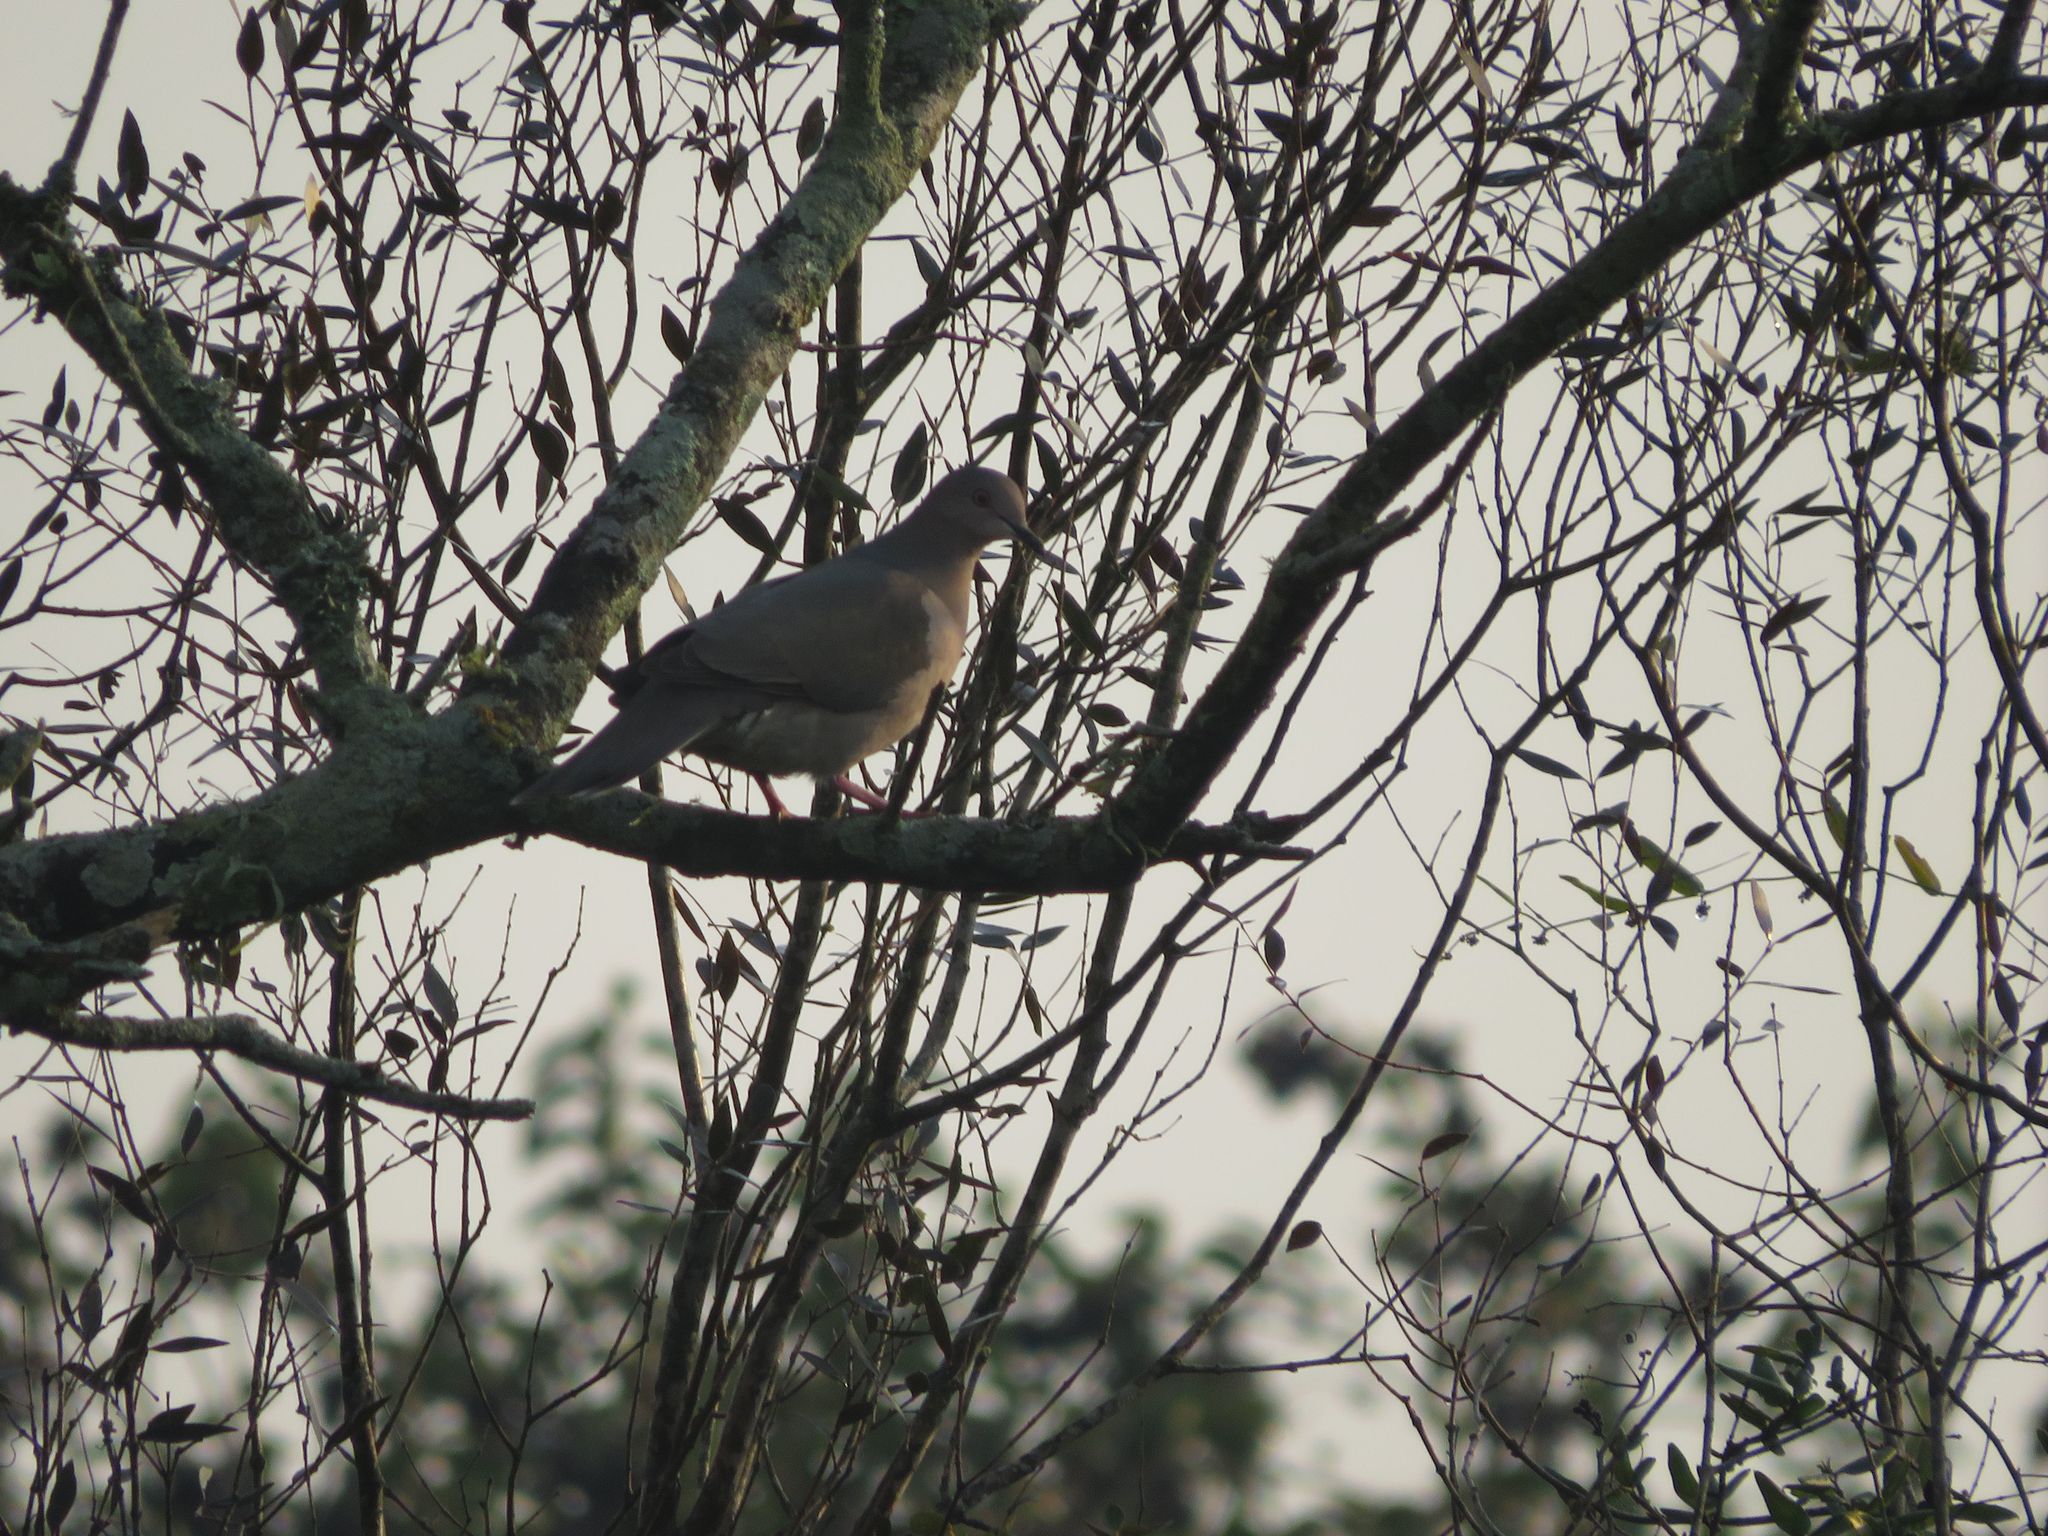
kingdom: Animalia
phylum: Chordata
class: Aves
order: Columbiformes
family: Columbidae
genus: Leptotila
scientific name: Leptotila verreauxi
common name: White-tipped dove
